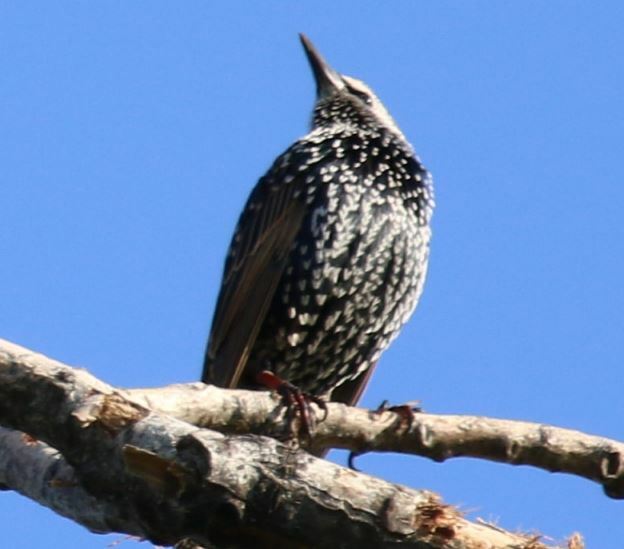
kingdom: Animalia
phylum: Chordata
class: Aves
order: Passeriformes
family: Sturnidae
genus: Sturnus
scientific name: Sturnus vulgaris
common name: Common starling
